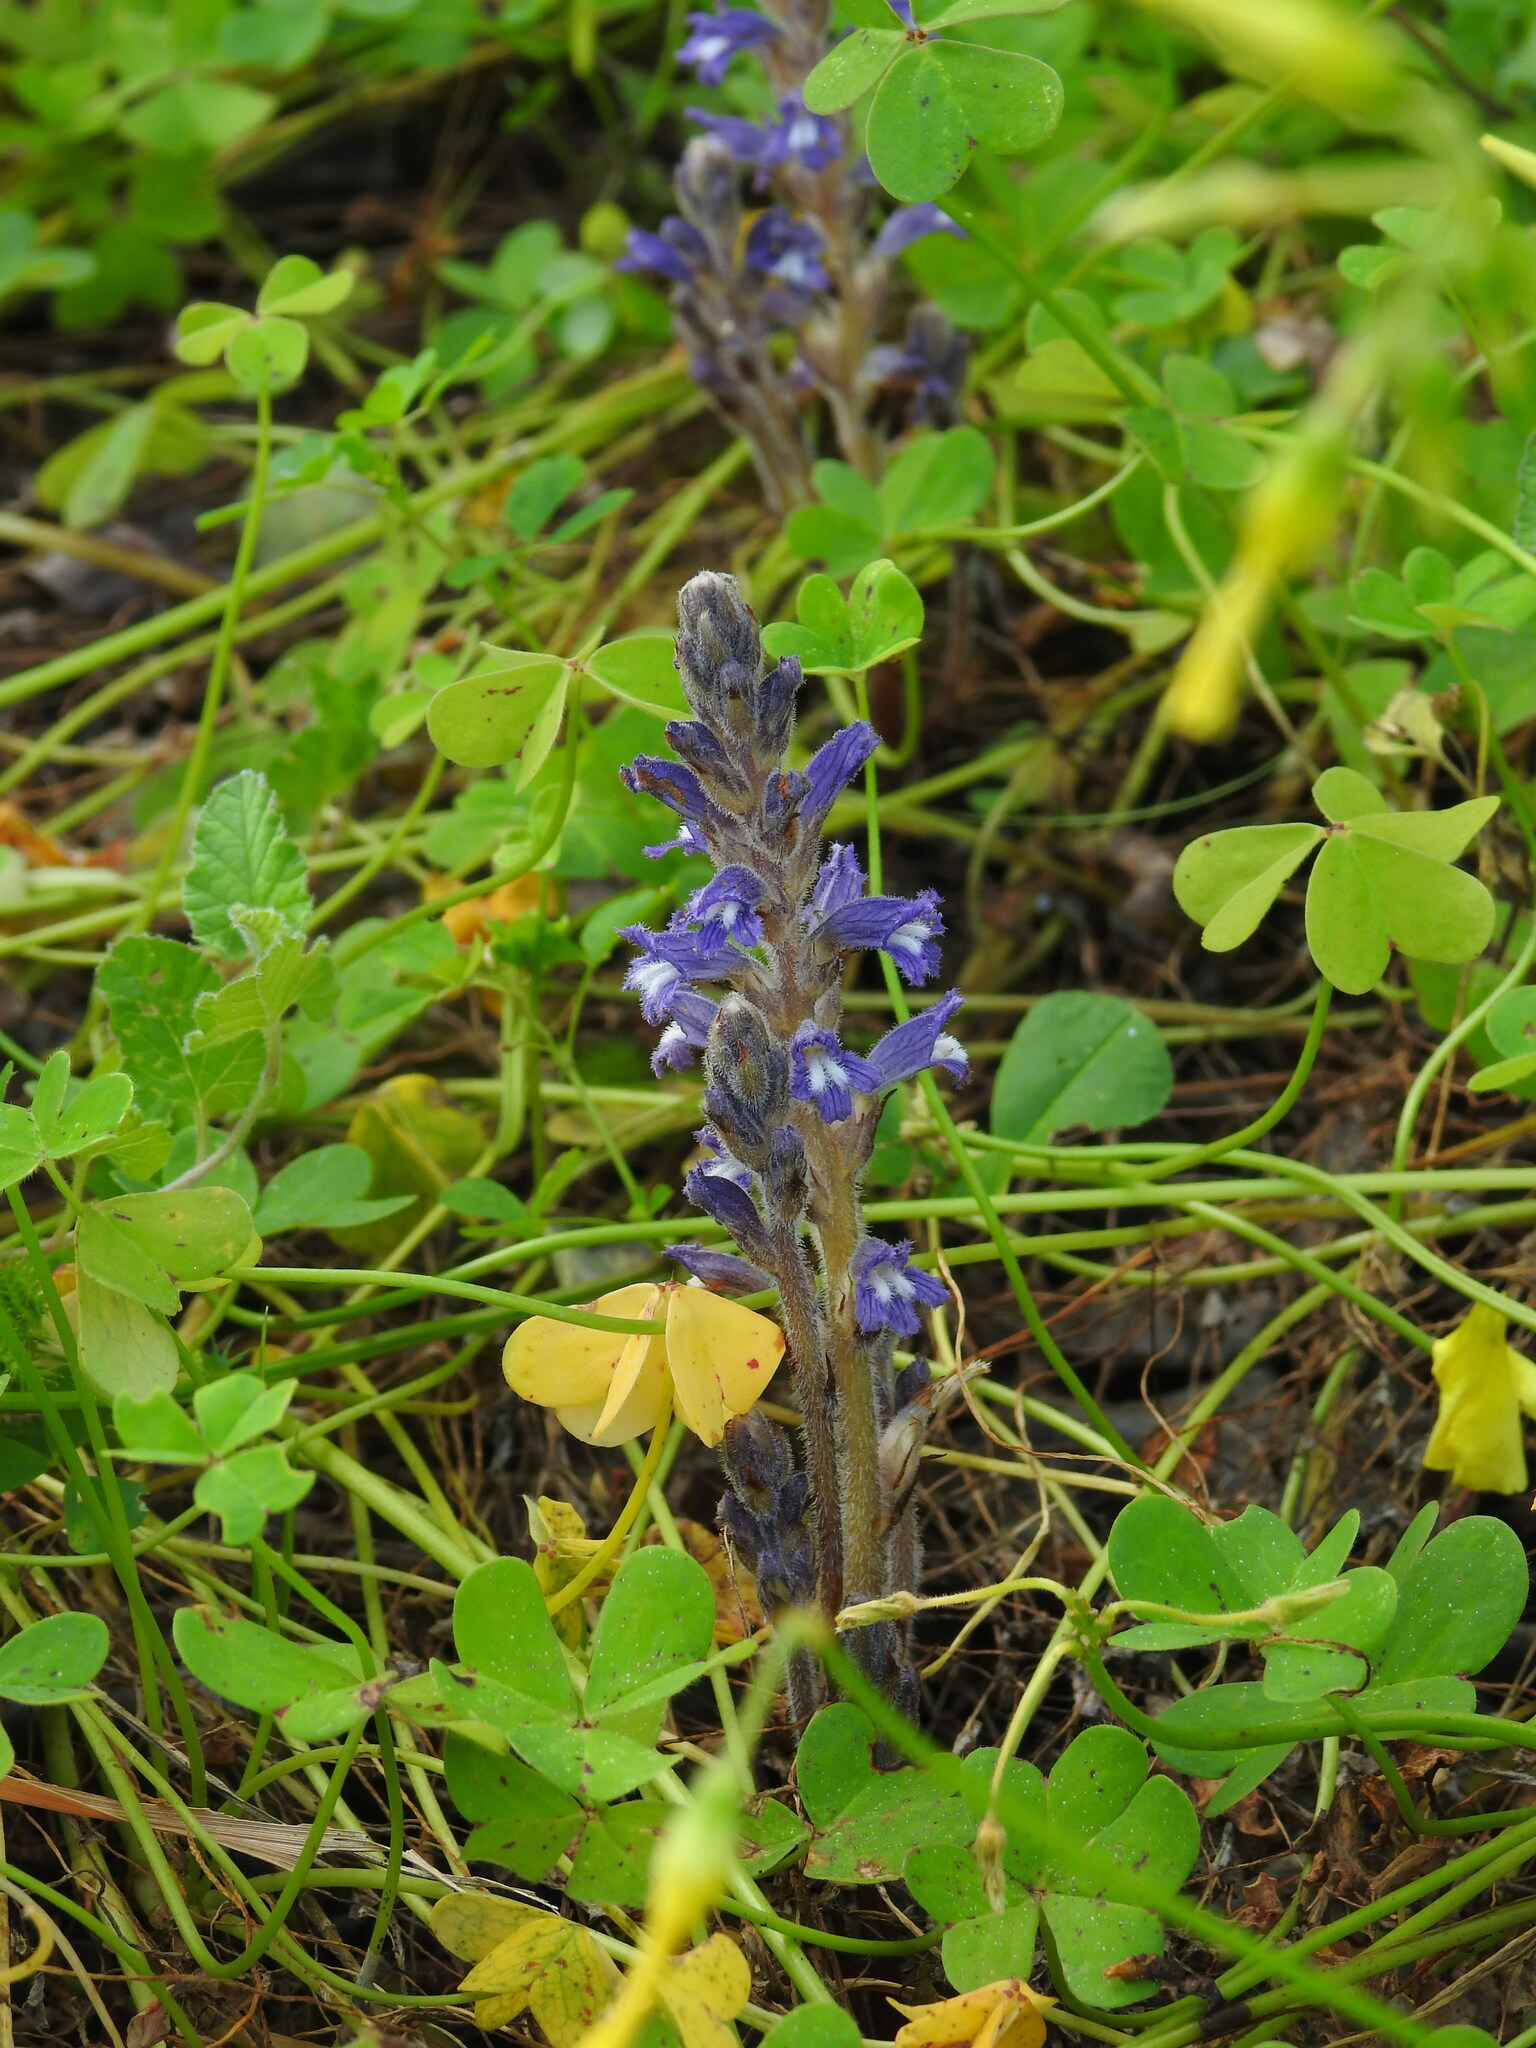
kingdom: Plantae
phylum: Tracheophyta
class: Magnoliopsida
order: Lamiales
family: Orobanchaceae
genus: Phelipanche
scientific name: Phelipanche mutelii
